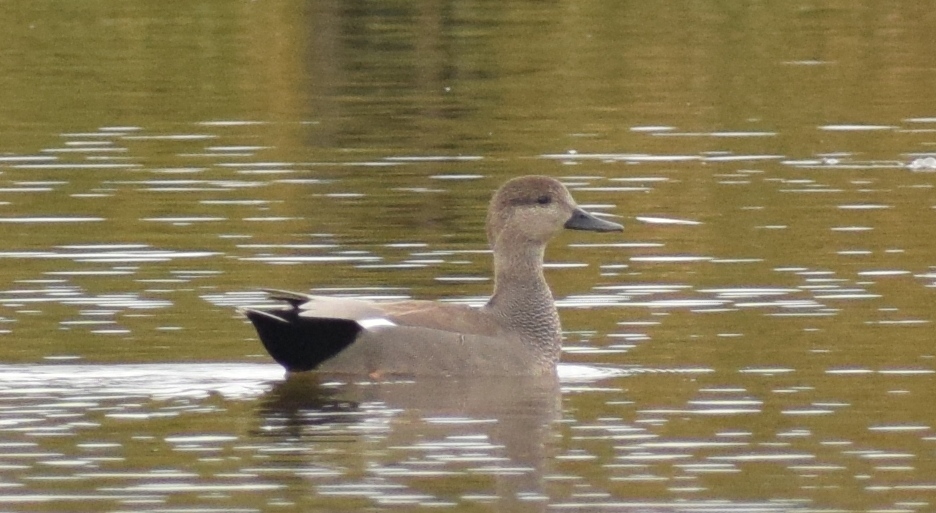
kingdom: Animalia
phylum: Chordata
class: Aves
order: Anseriformes
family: Anatidae
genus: Mareca
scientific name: Mareca strepera
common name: Gadwall
